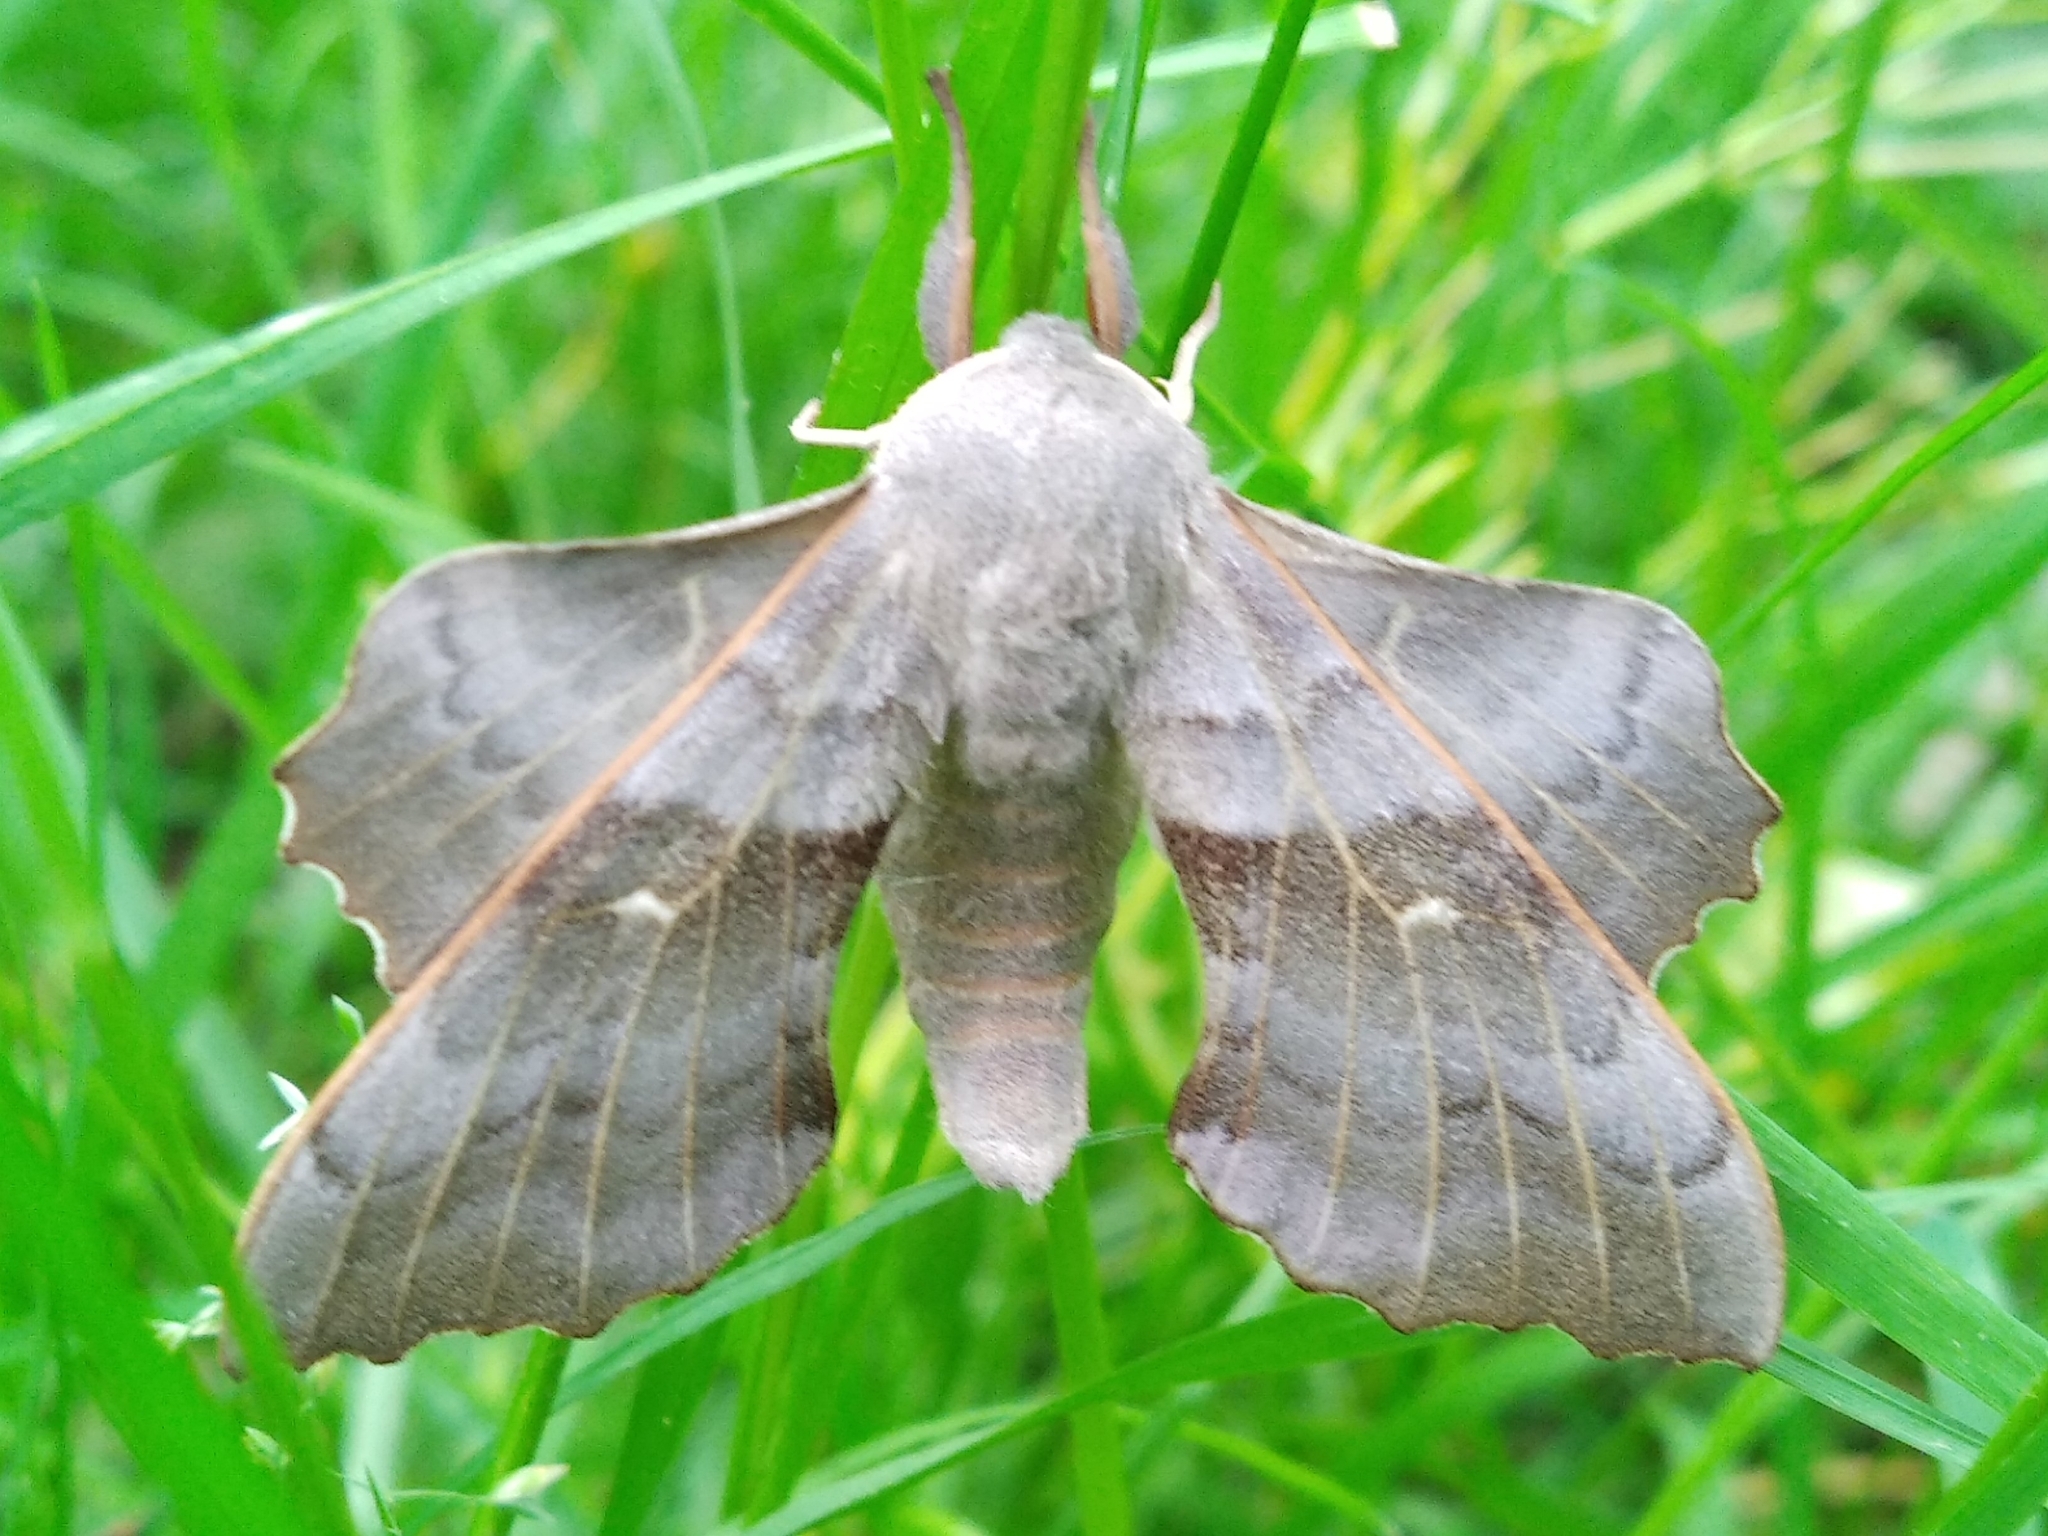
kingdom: Animalia
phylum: Arthropoda
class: Insecta
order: Lepidoptera
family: Sphingidae
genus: Laothoe
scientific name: Laothoe populi
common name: Poplar hawk-moth
